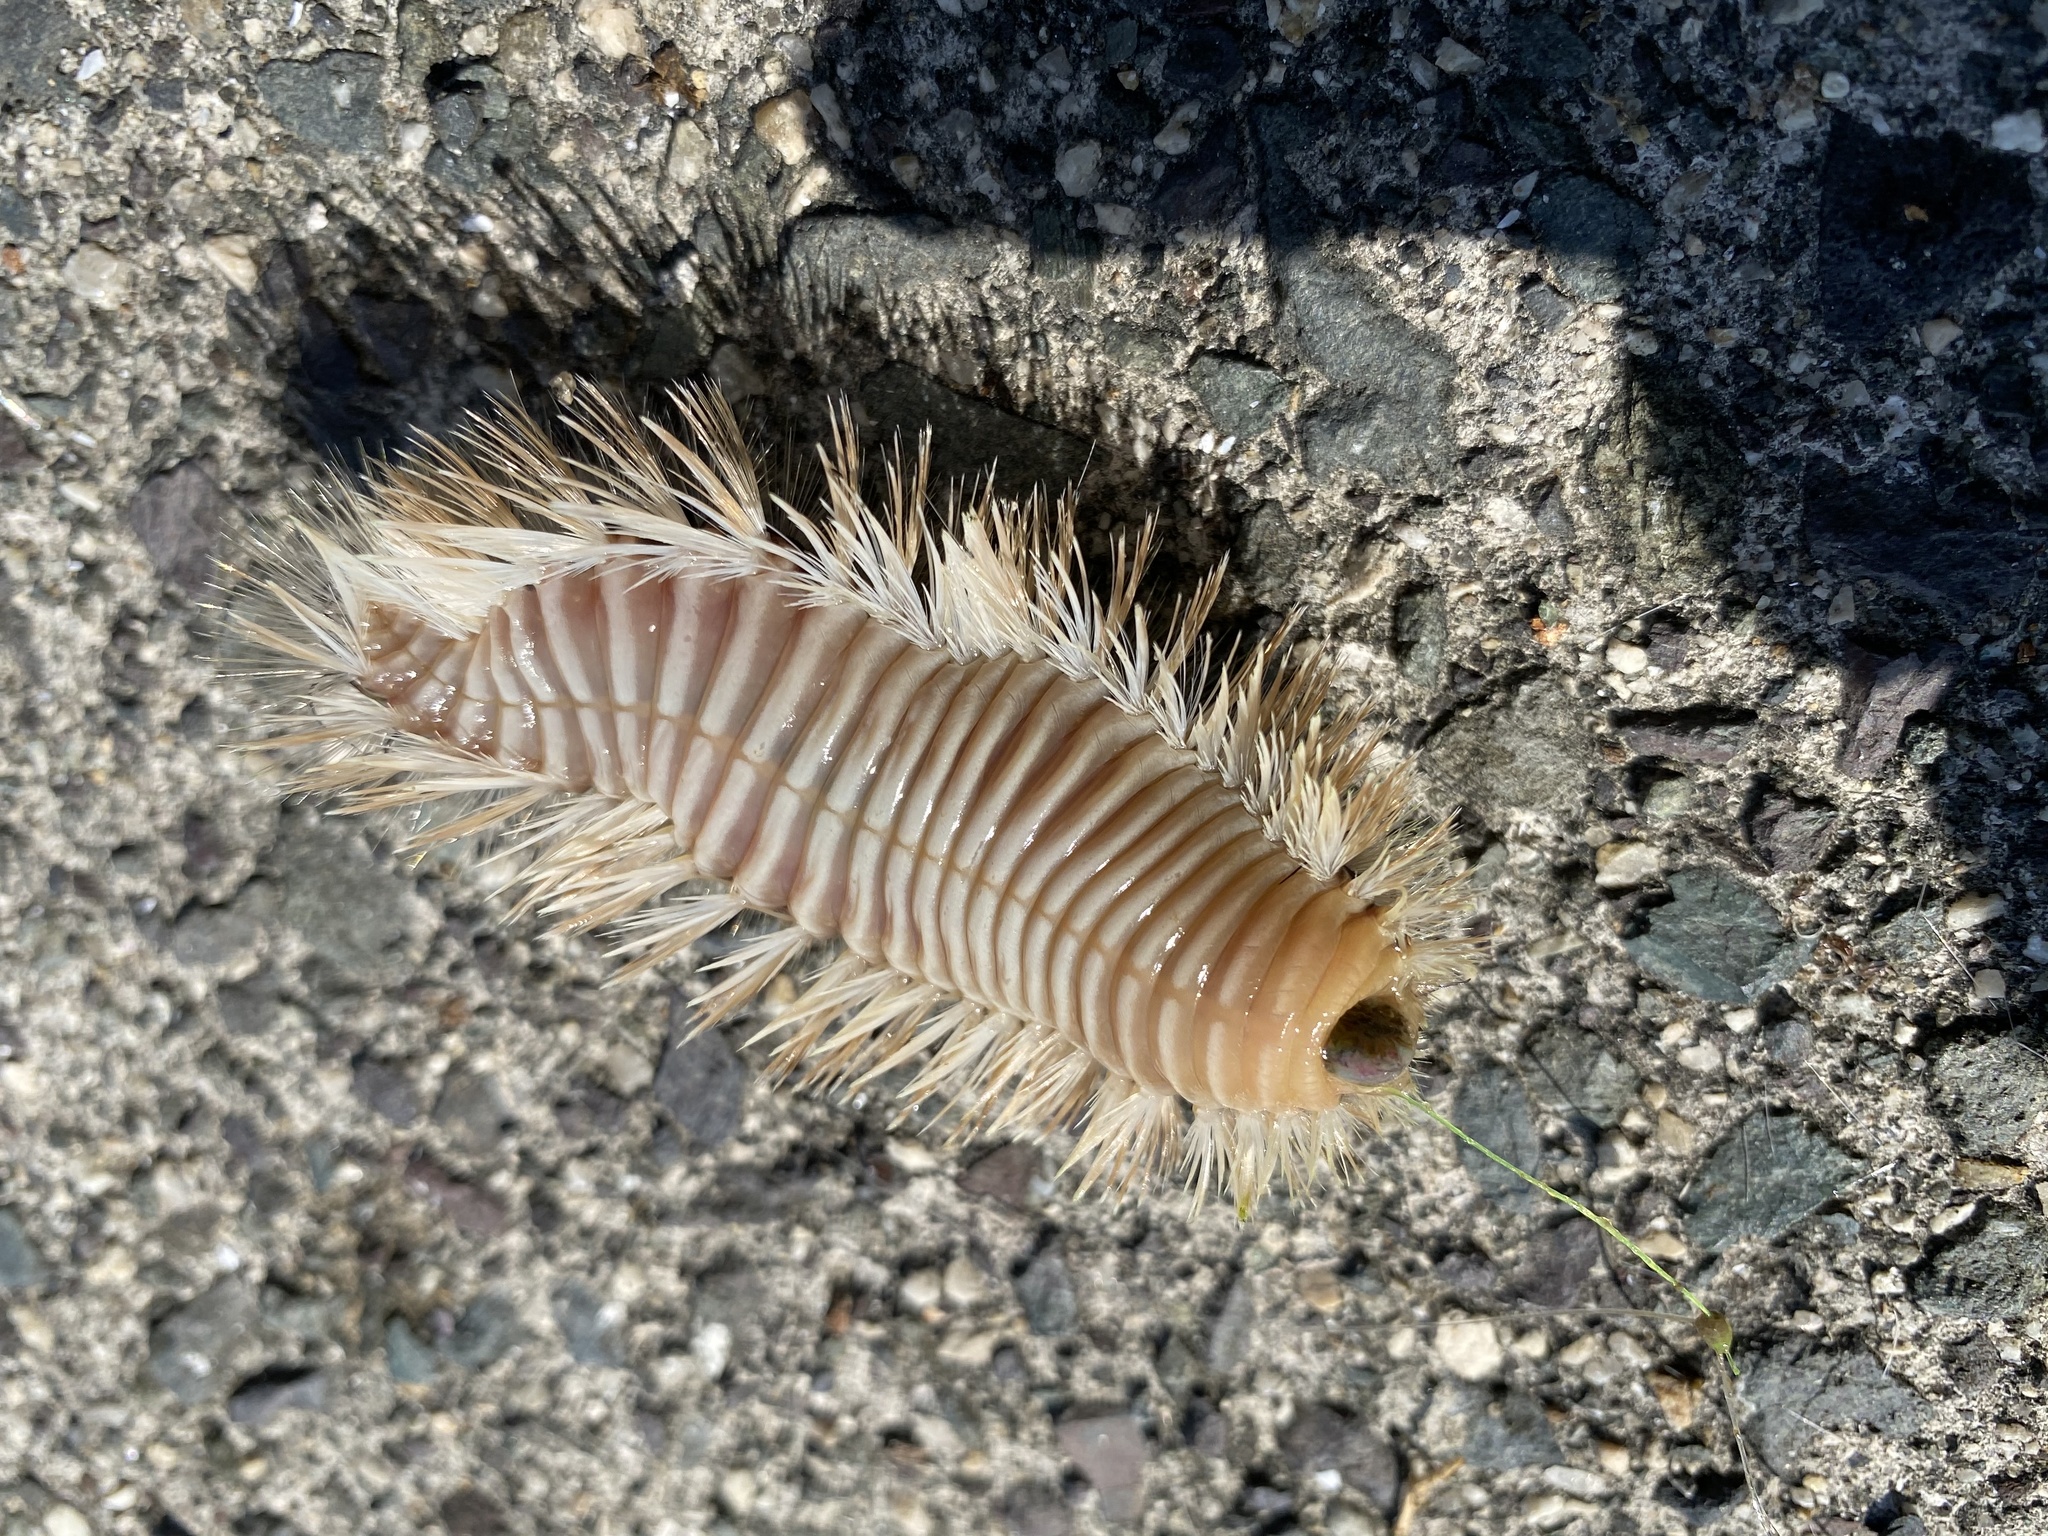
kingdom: Animalia
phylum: Annelida
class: Polychaeta
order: Amphinomida
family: Amphinomidae
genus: Chloeia
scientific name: Chloeia flava
